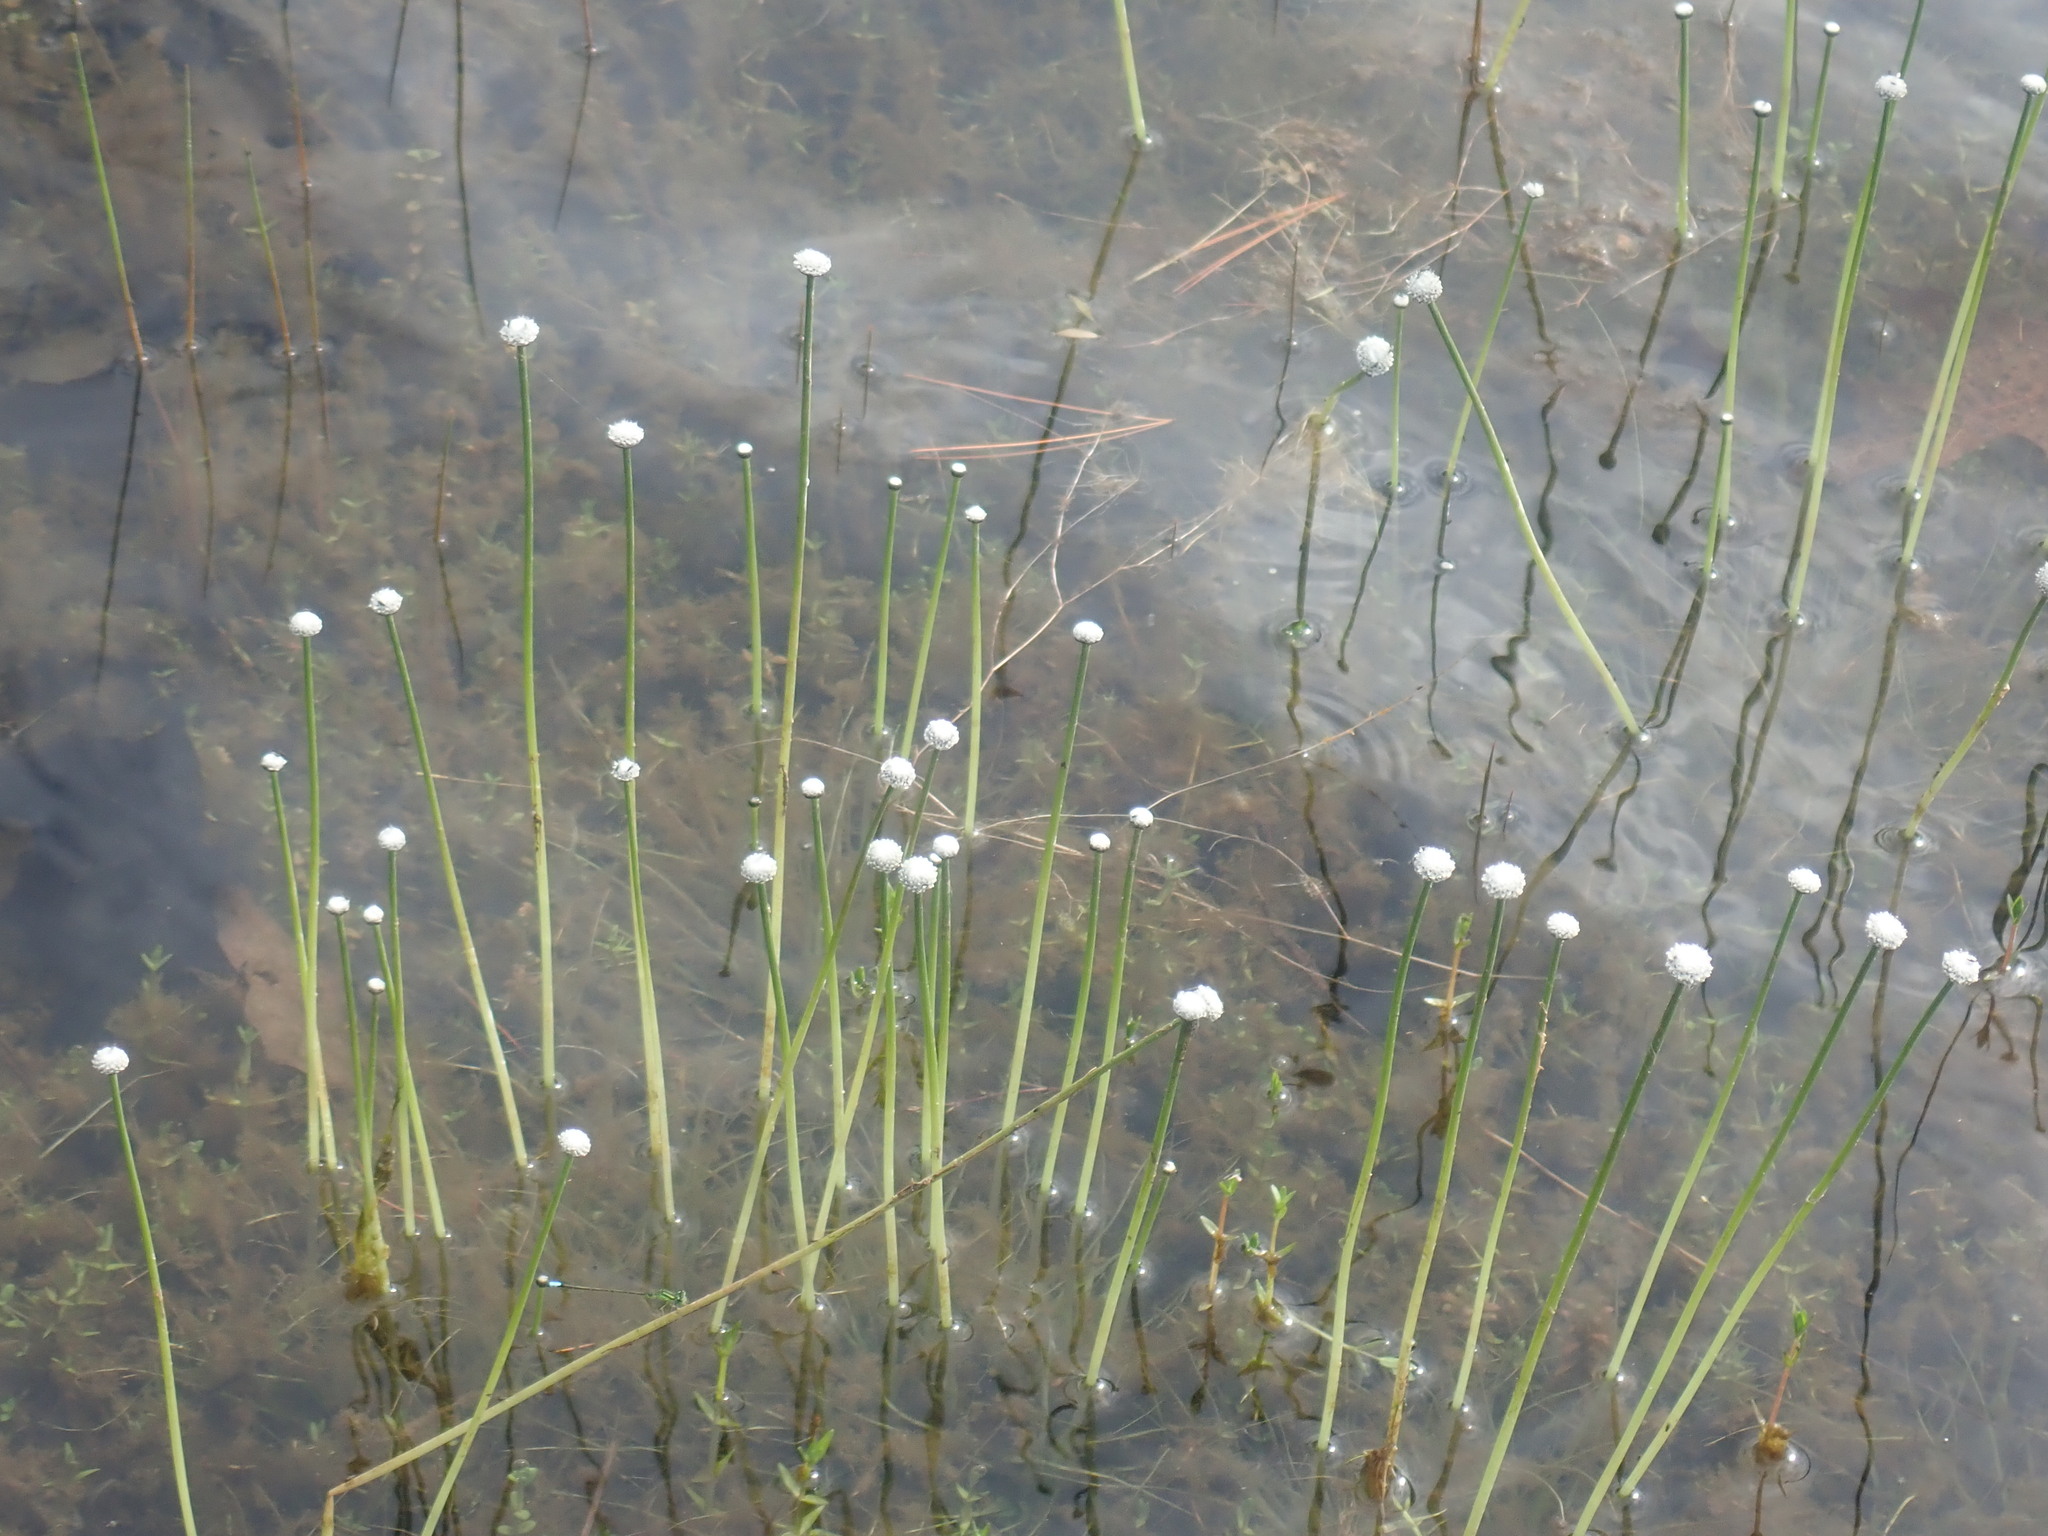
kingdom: Plantae
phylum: Tracheophyta
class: Liliopsida
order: Poales
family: Eriocaulaceae
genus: Eriocaulon
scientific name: Eriocaulon aquaticum
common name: Pipewort
